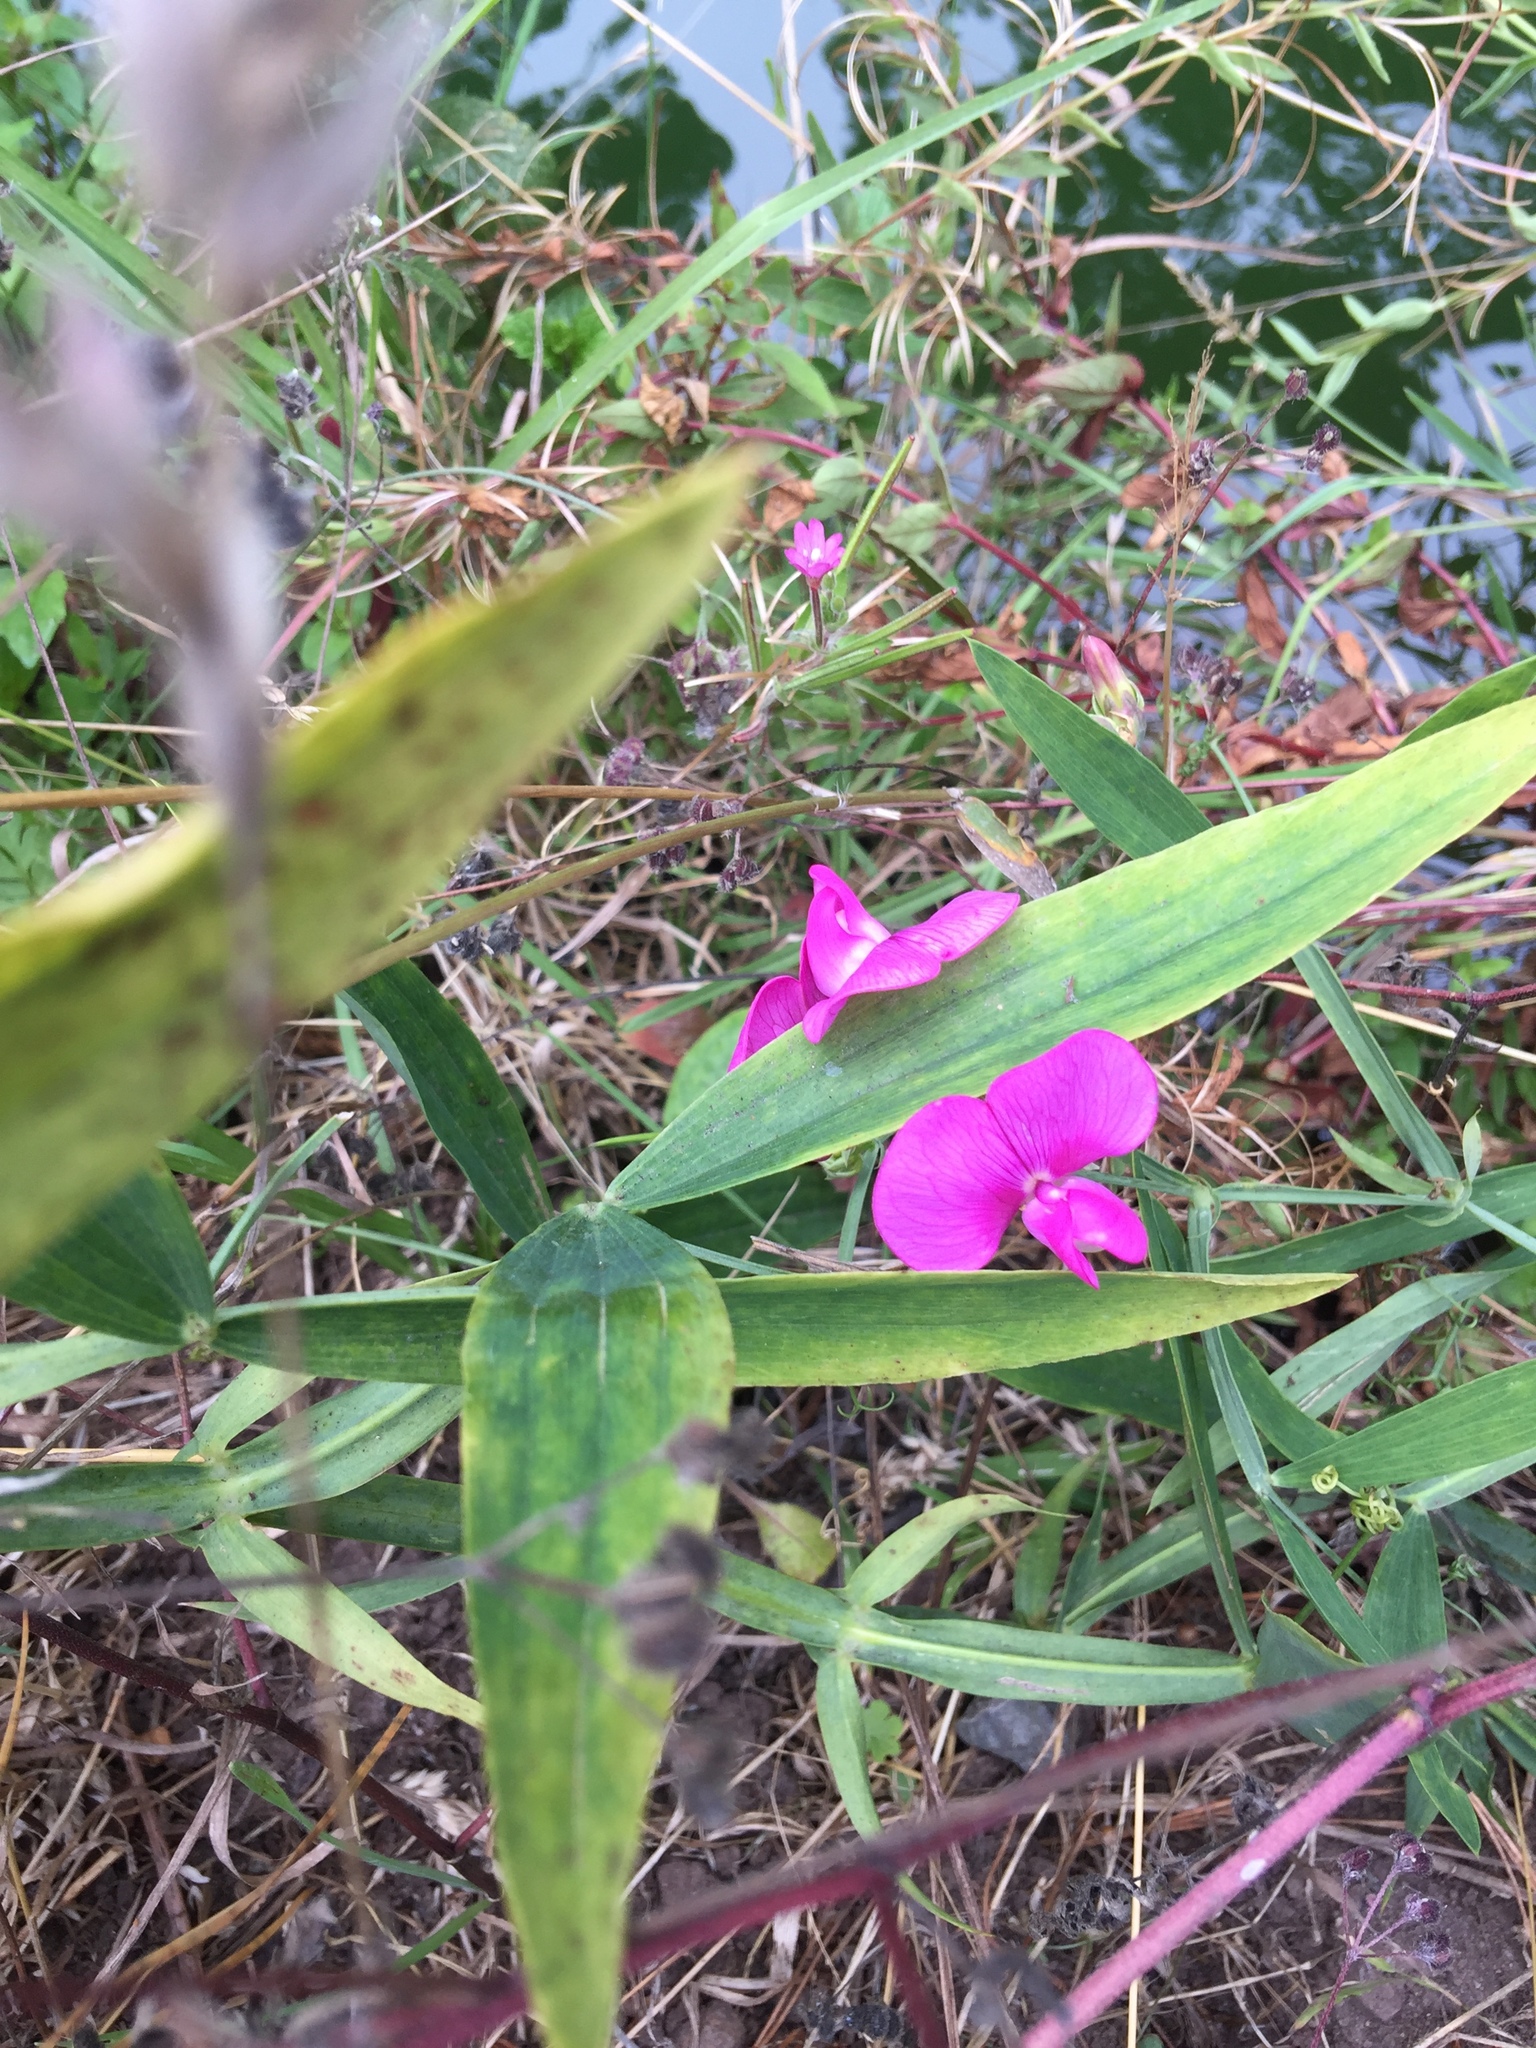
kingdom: Plantae
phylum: Tracheophyta
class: Magnoliopsida
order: Fabales
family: Fabaceae
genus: Lathyrus
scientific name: Lathyrus latifolius
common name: Perennial pea
